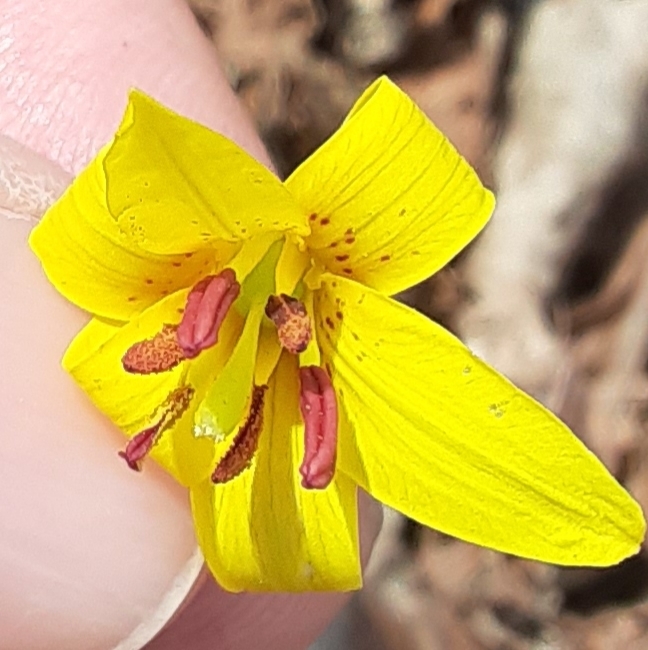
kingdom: Plantae
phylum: Tracheophyta
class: Liliopsida
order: Liliales
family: Liliaceae
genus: Erythronium
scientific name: Erythronium americanum
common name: Yellow adder's-tongue
